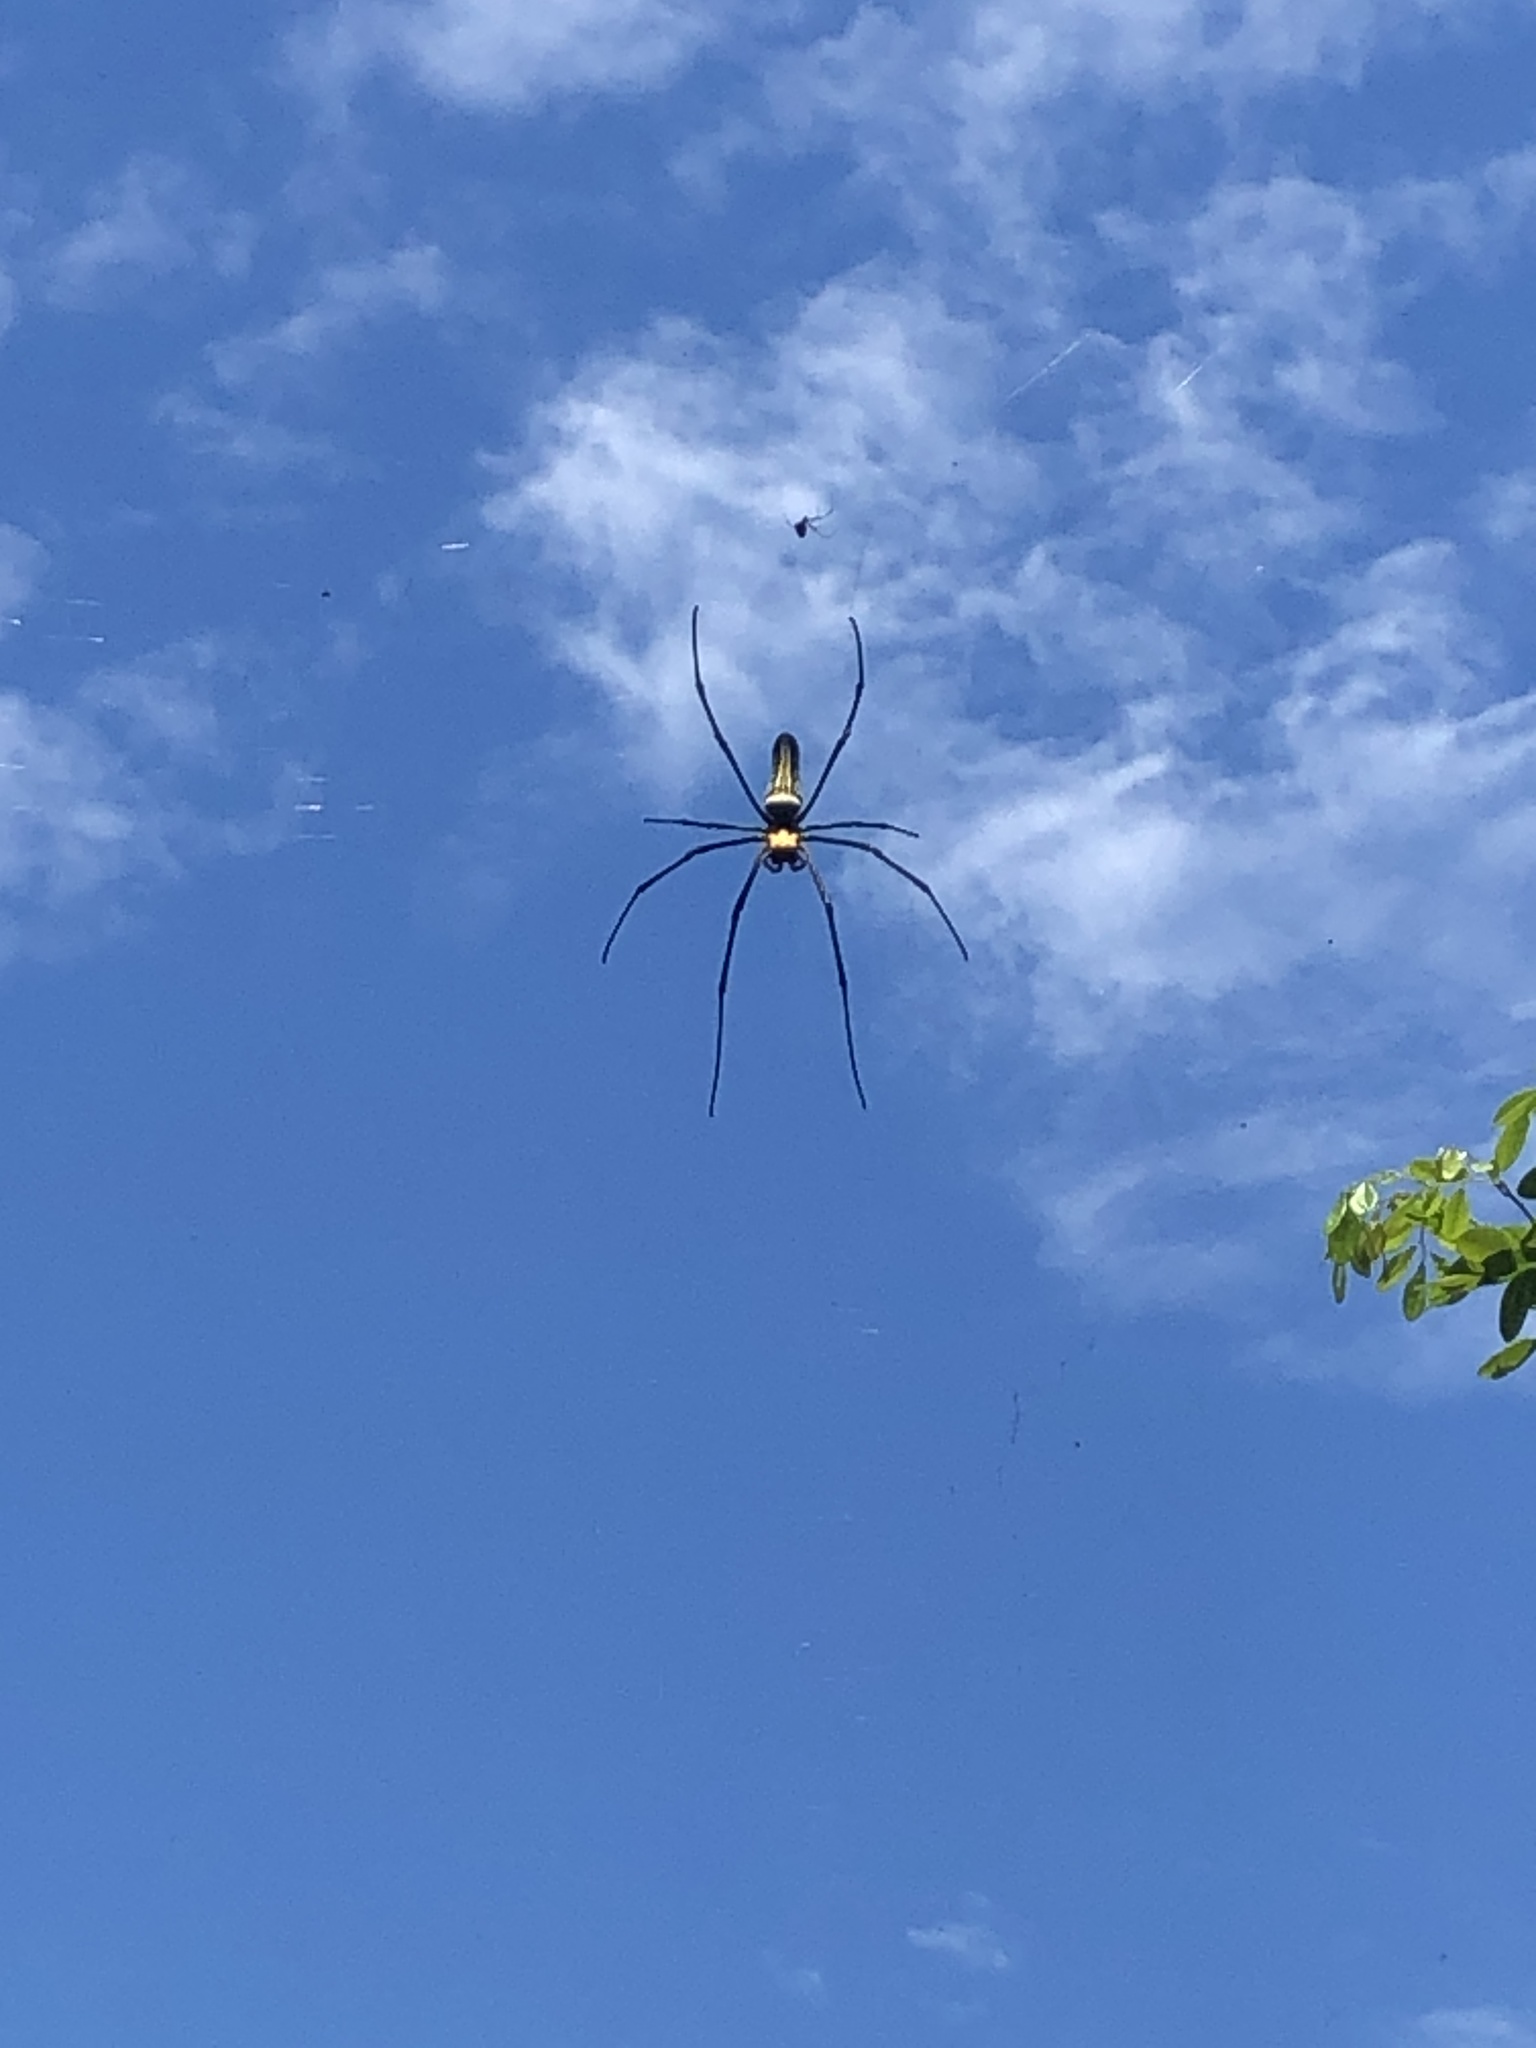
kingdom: Animalia
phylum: Arthropoda
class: Arachnida
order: Araneae
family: Araneidae
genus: Nephila
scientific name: Nephila pilipes
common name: Giant golden orb weaver
